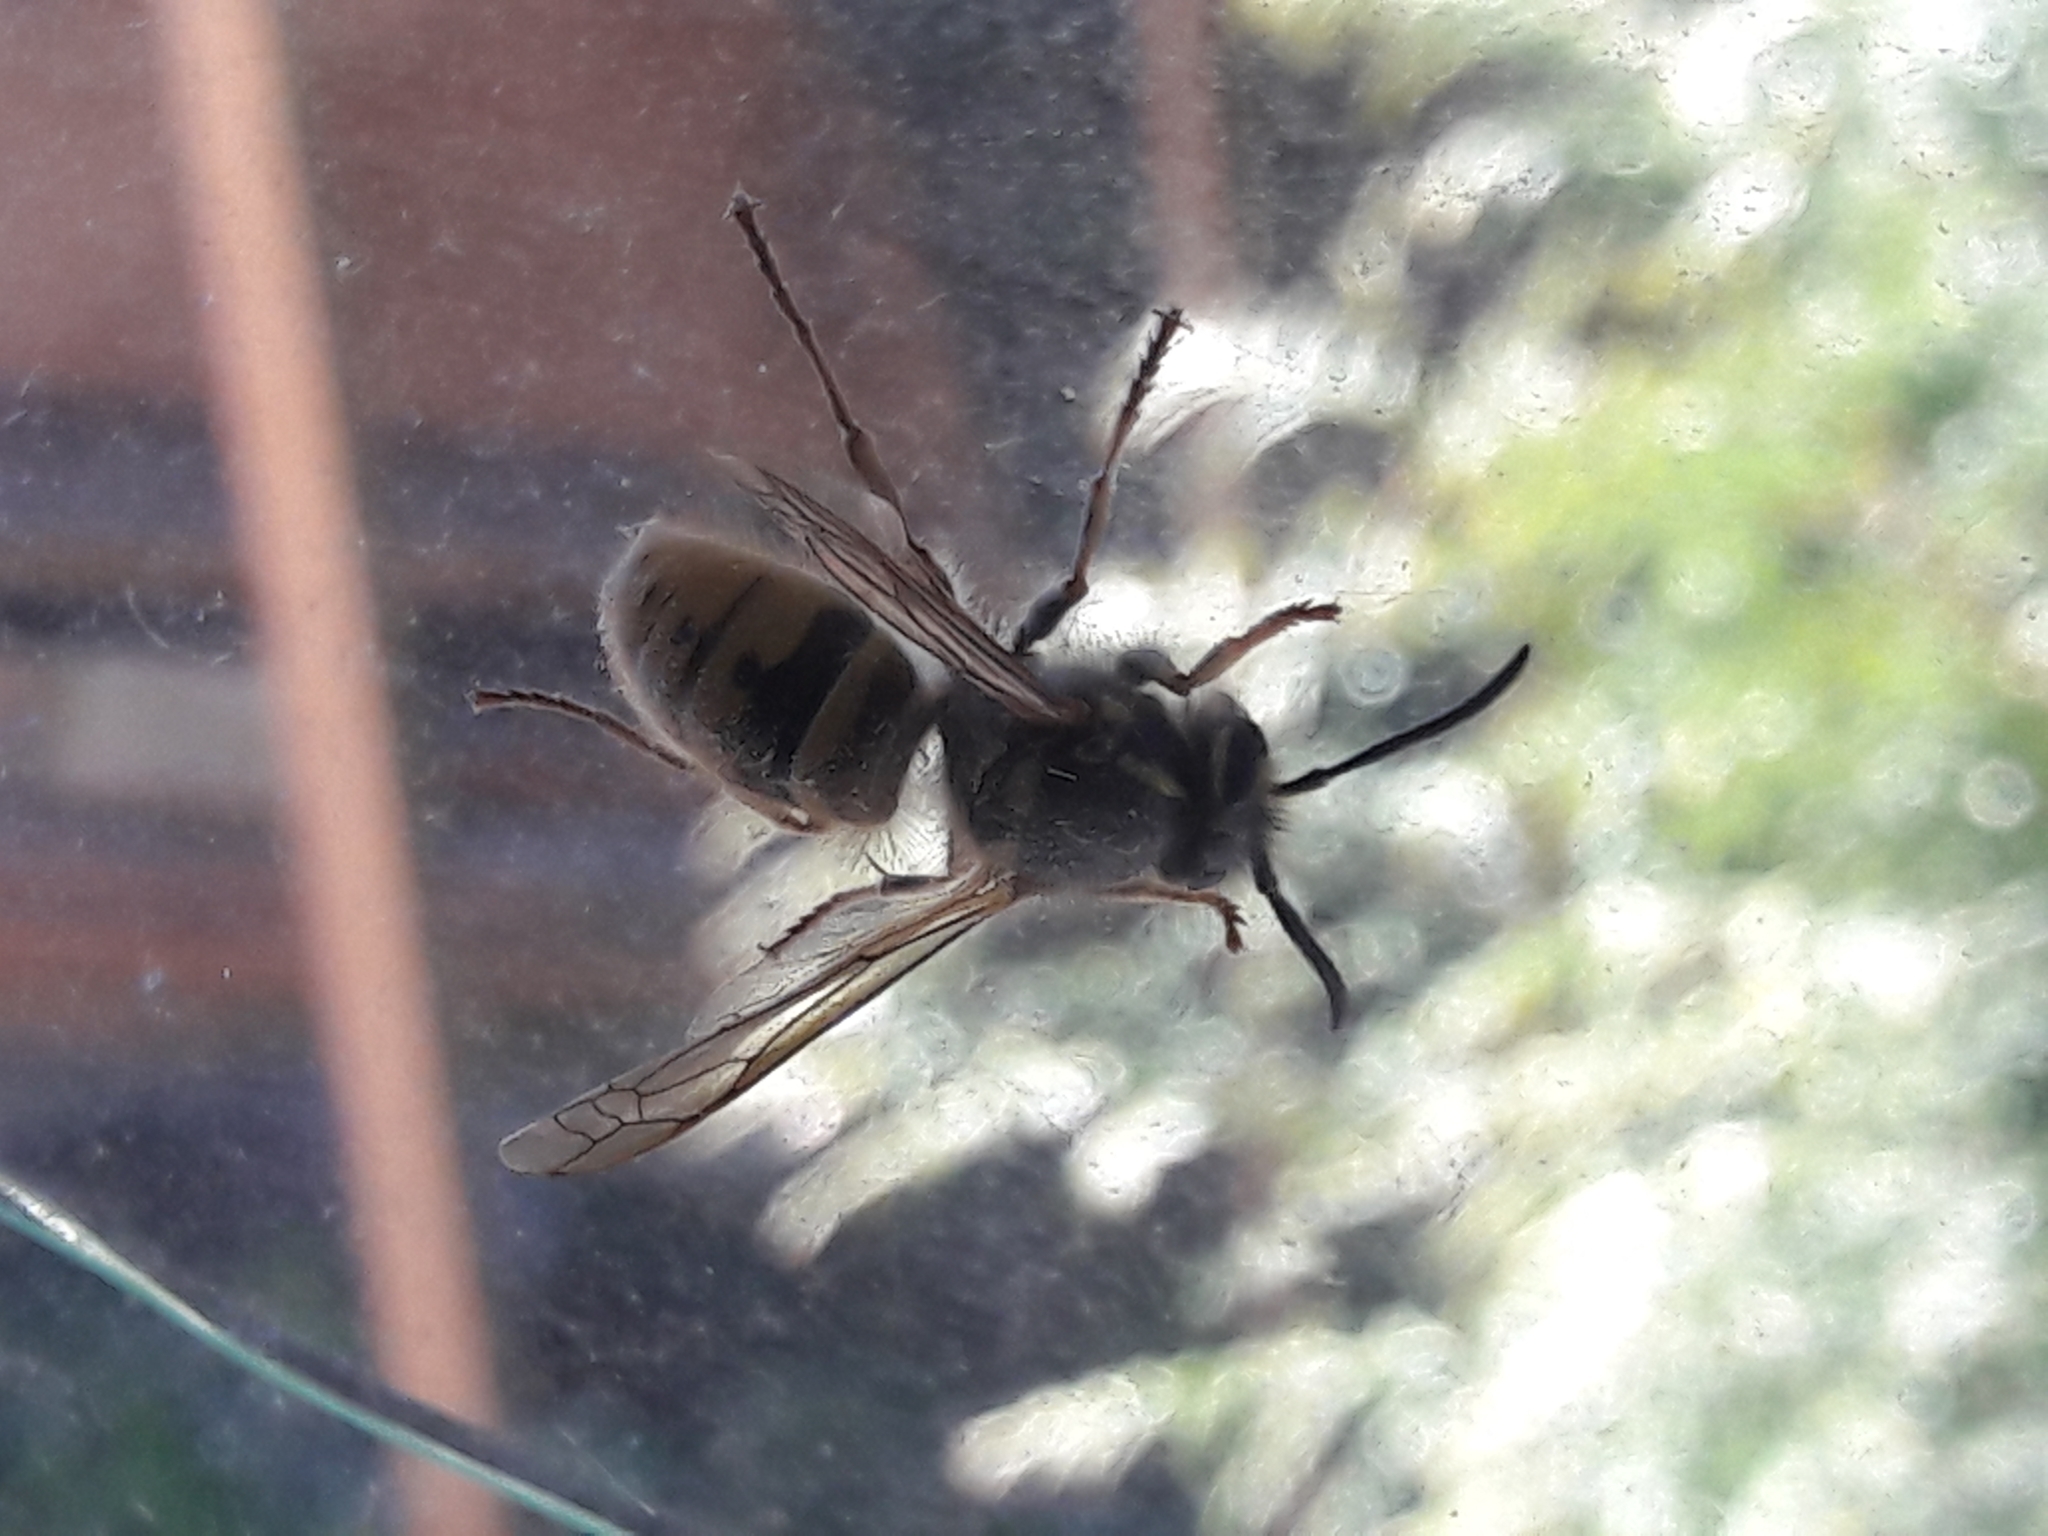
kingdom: Animalia
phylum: Arthropoda
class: Insecta
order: Hymenoptera
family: Vespidae
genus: Vespula
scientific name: Vespula vulgaris
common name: Common wasp
